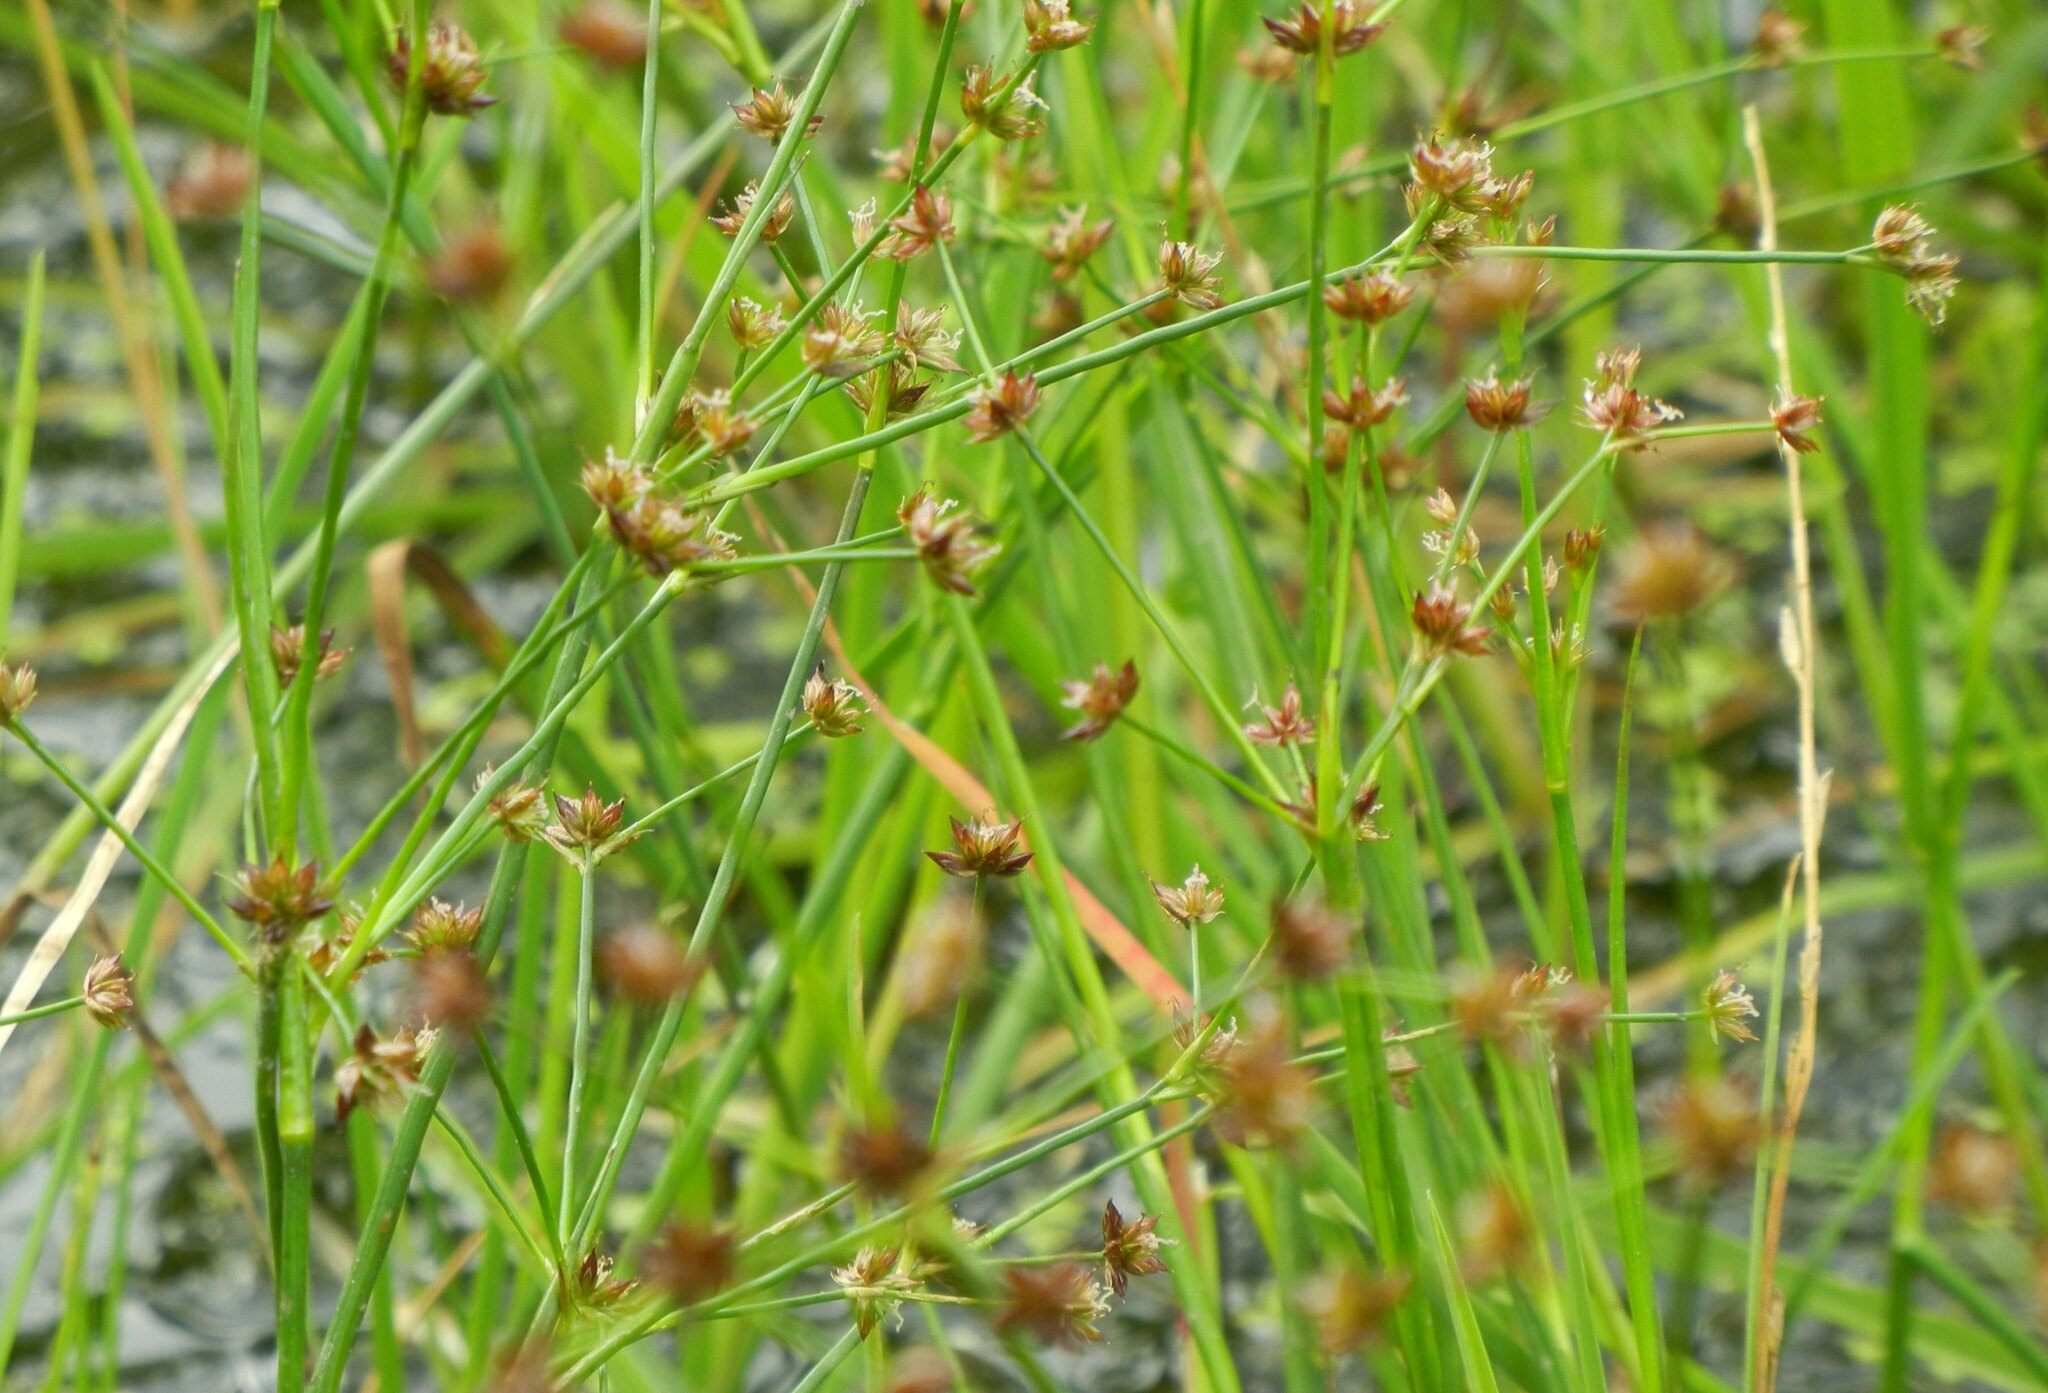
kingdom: Plantae
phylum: Tracheophyta
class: Liliopsida
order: Poales
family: Juncaceae
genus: Juncus
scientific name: Juncus articulatus
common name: Jointed rush
